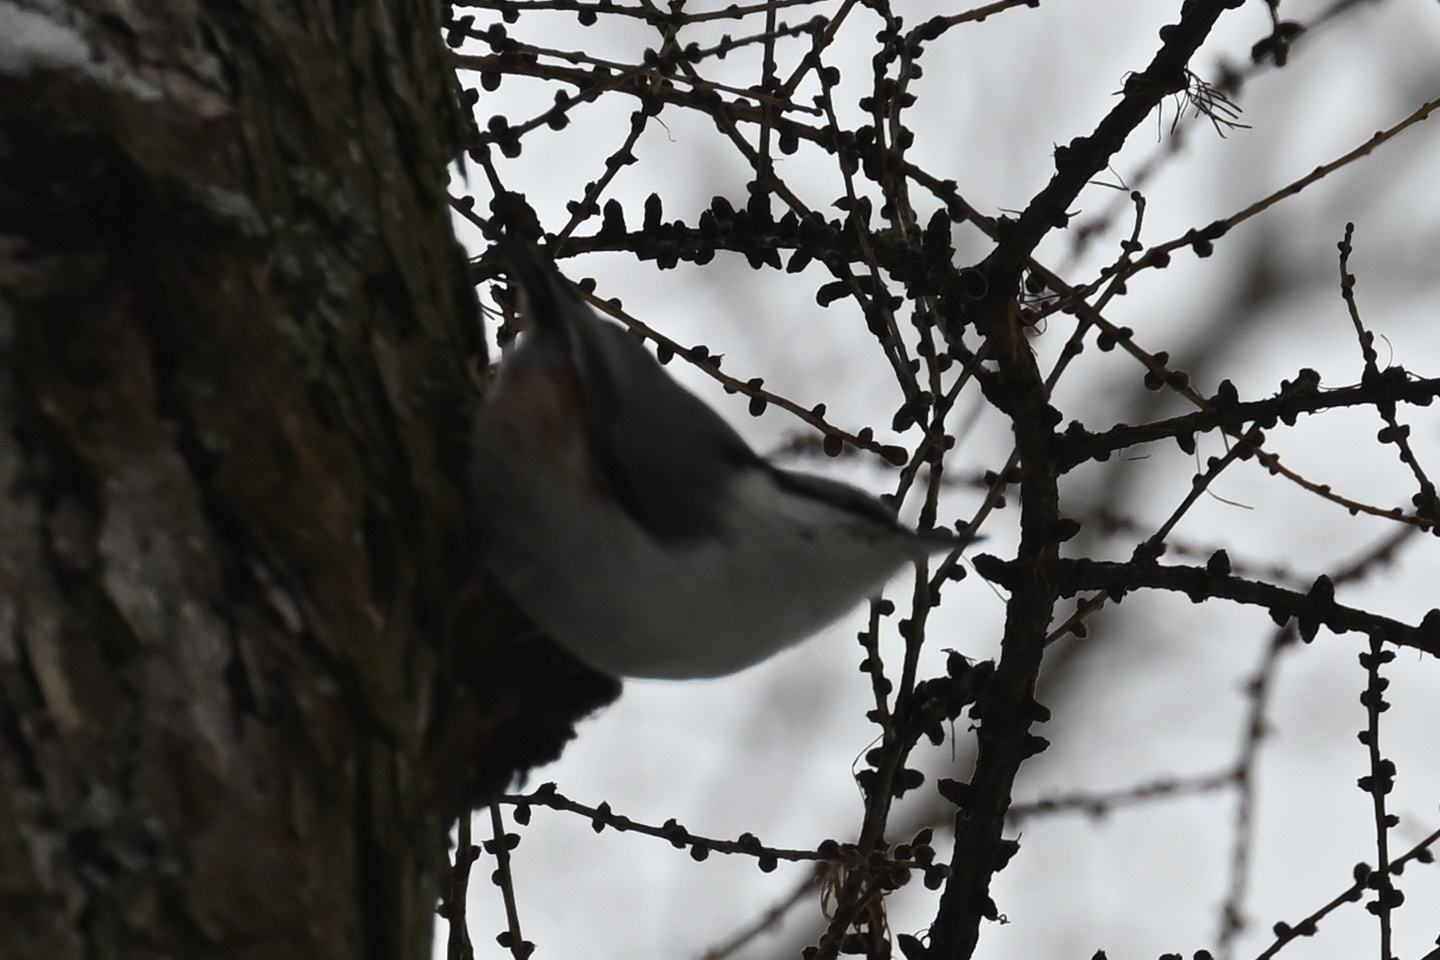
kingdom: Animalia
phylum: Chordata
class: Aves
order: Passeriformes
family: Sittidae
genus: Sitta
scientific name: Sitta europaea
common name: Eurasian nuthatch
